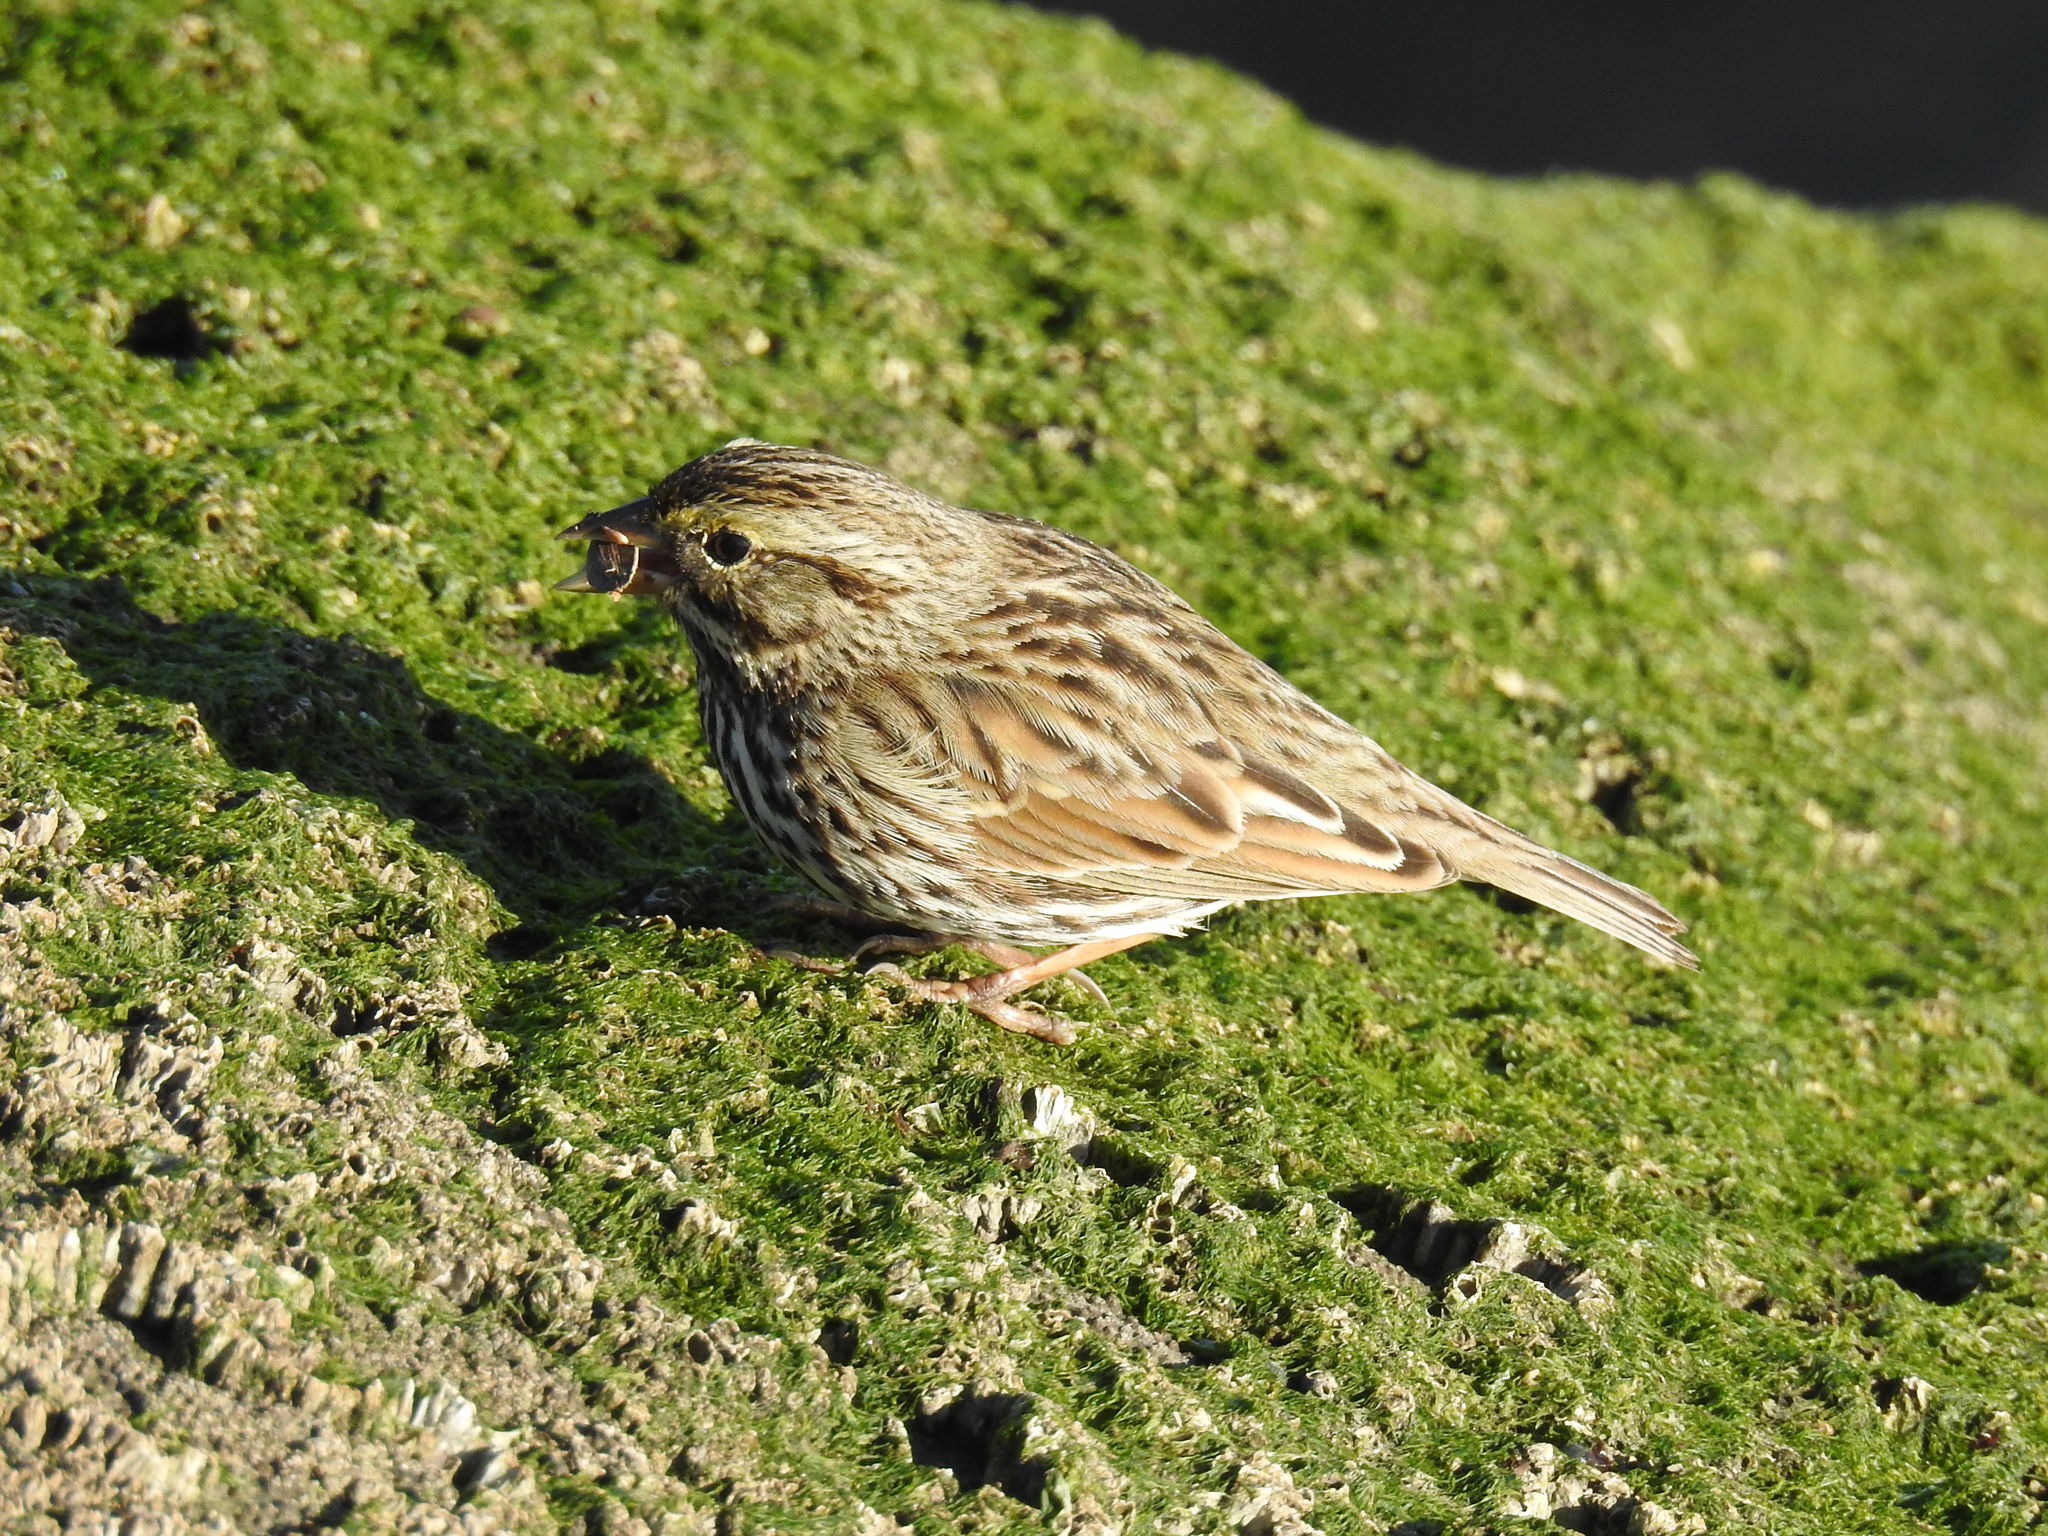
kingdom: Animalia
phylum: Chordata
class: Aves
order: Passeriformes
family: Passerellidae
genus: Passerculus
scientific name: Passerculus sandwichensis
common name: Savannah sparrow
